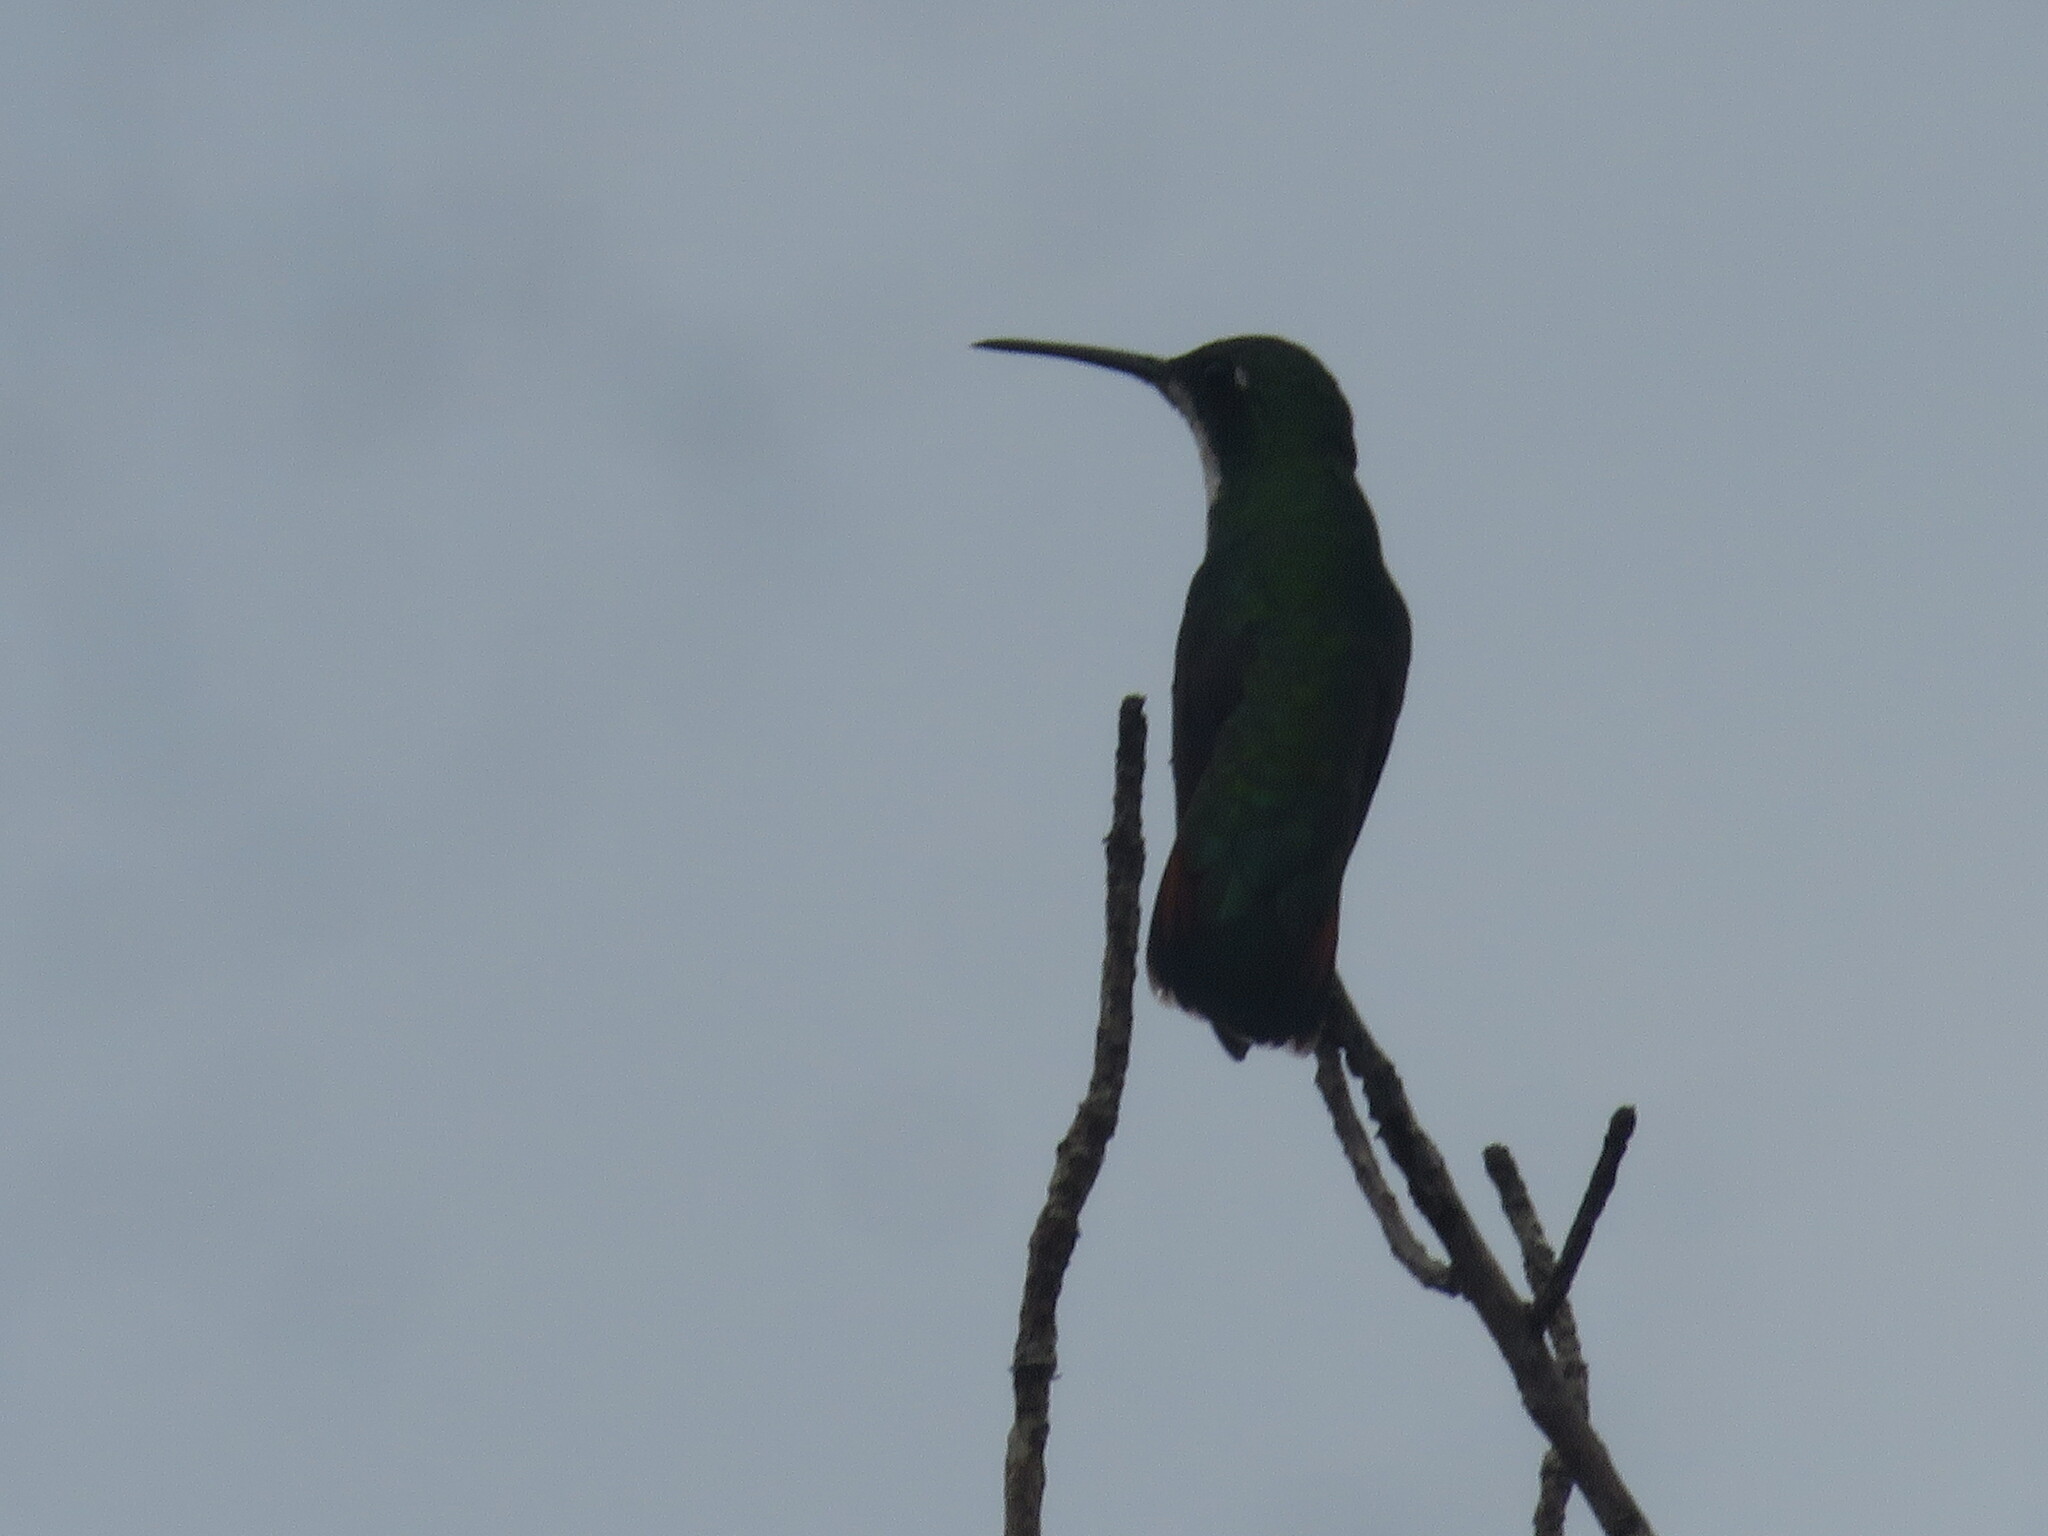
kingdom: Animalia
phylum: Chordata
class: Aves
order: Apodiformes
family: Trochilidae
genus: Anthracothorax
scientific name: Anthracothorax nigricollis
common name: Black-throated mango
